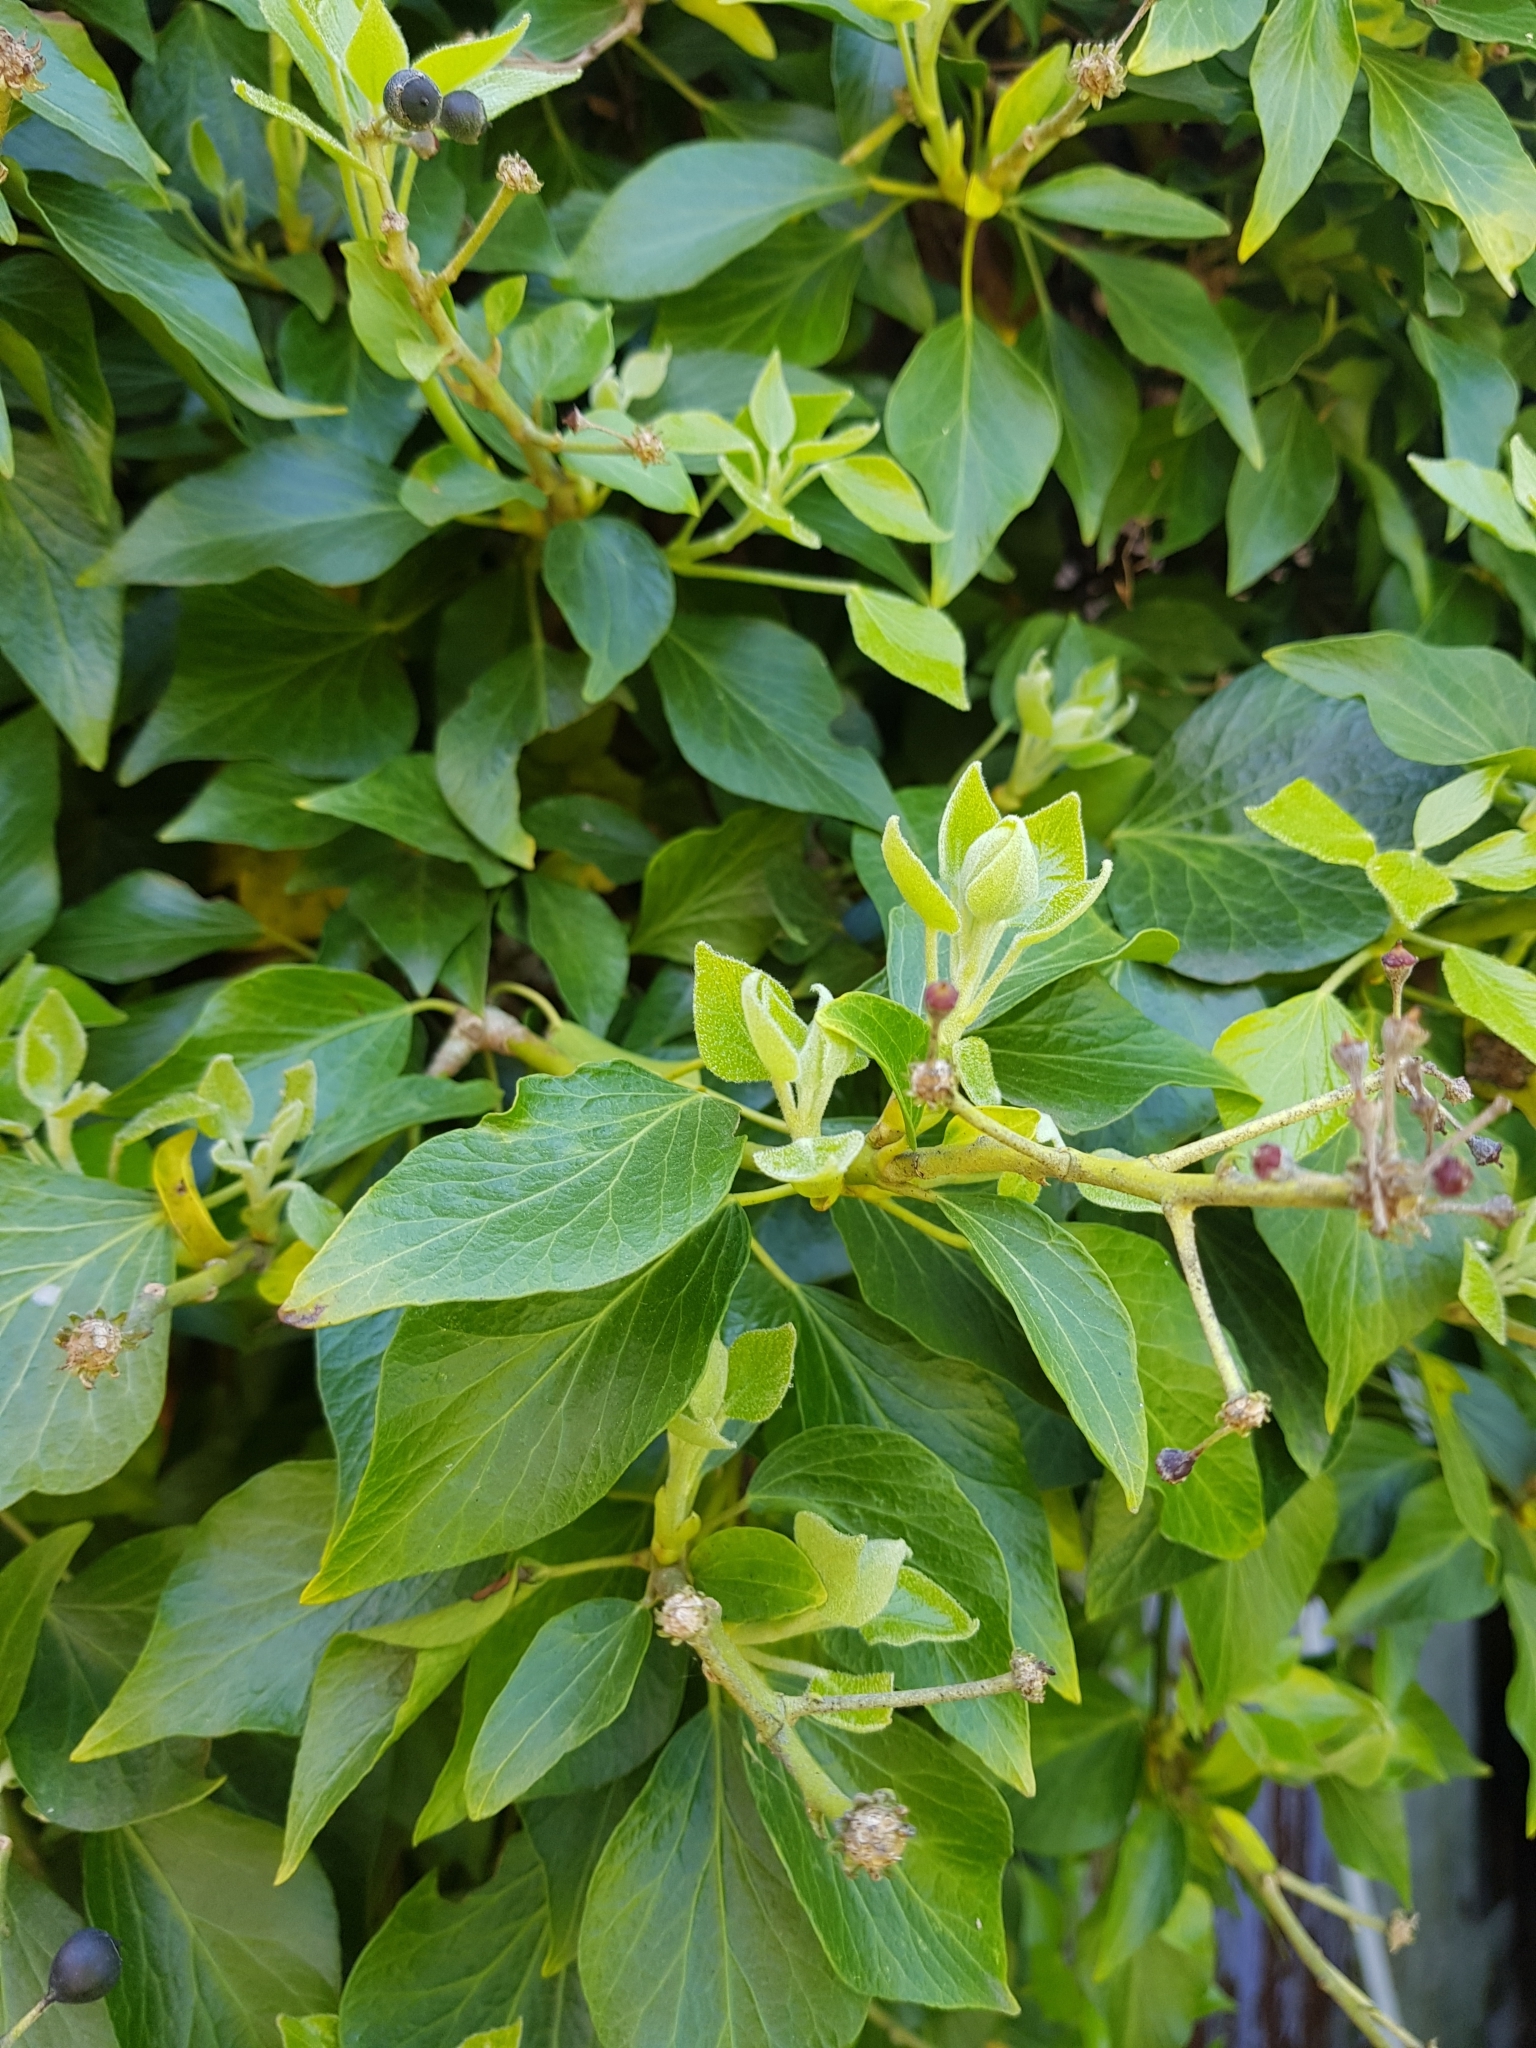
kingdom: Plantae
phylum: Tracheophyta
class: Magnoliopsida
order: Apiales
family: Araliaceae
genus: Hedera
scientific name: Hedera helix
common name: Ivy
